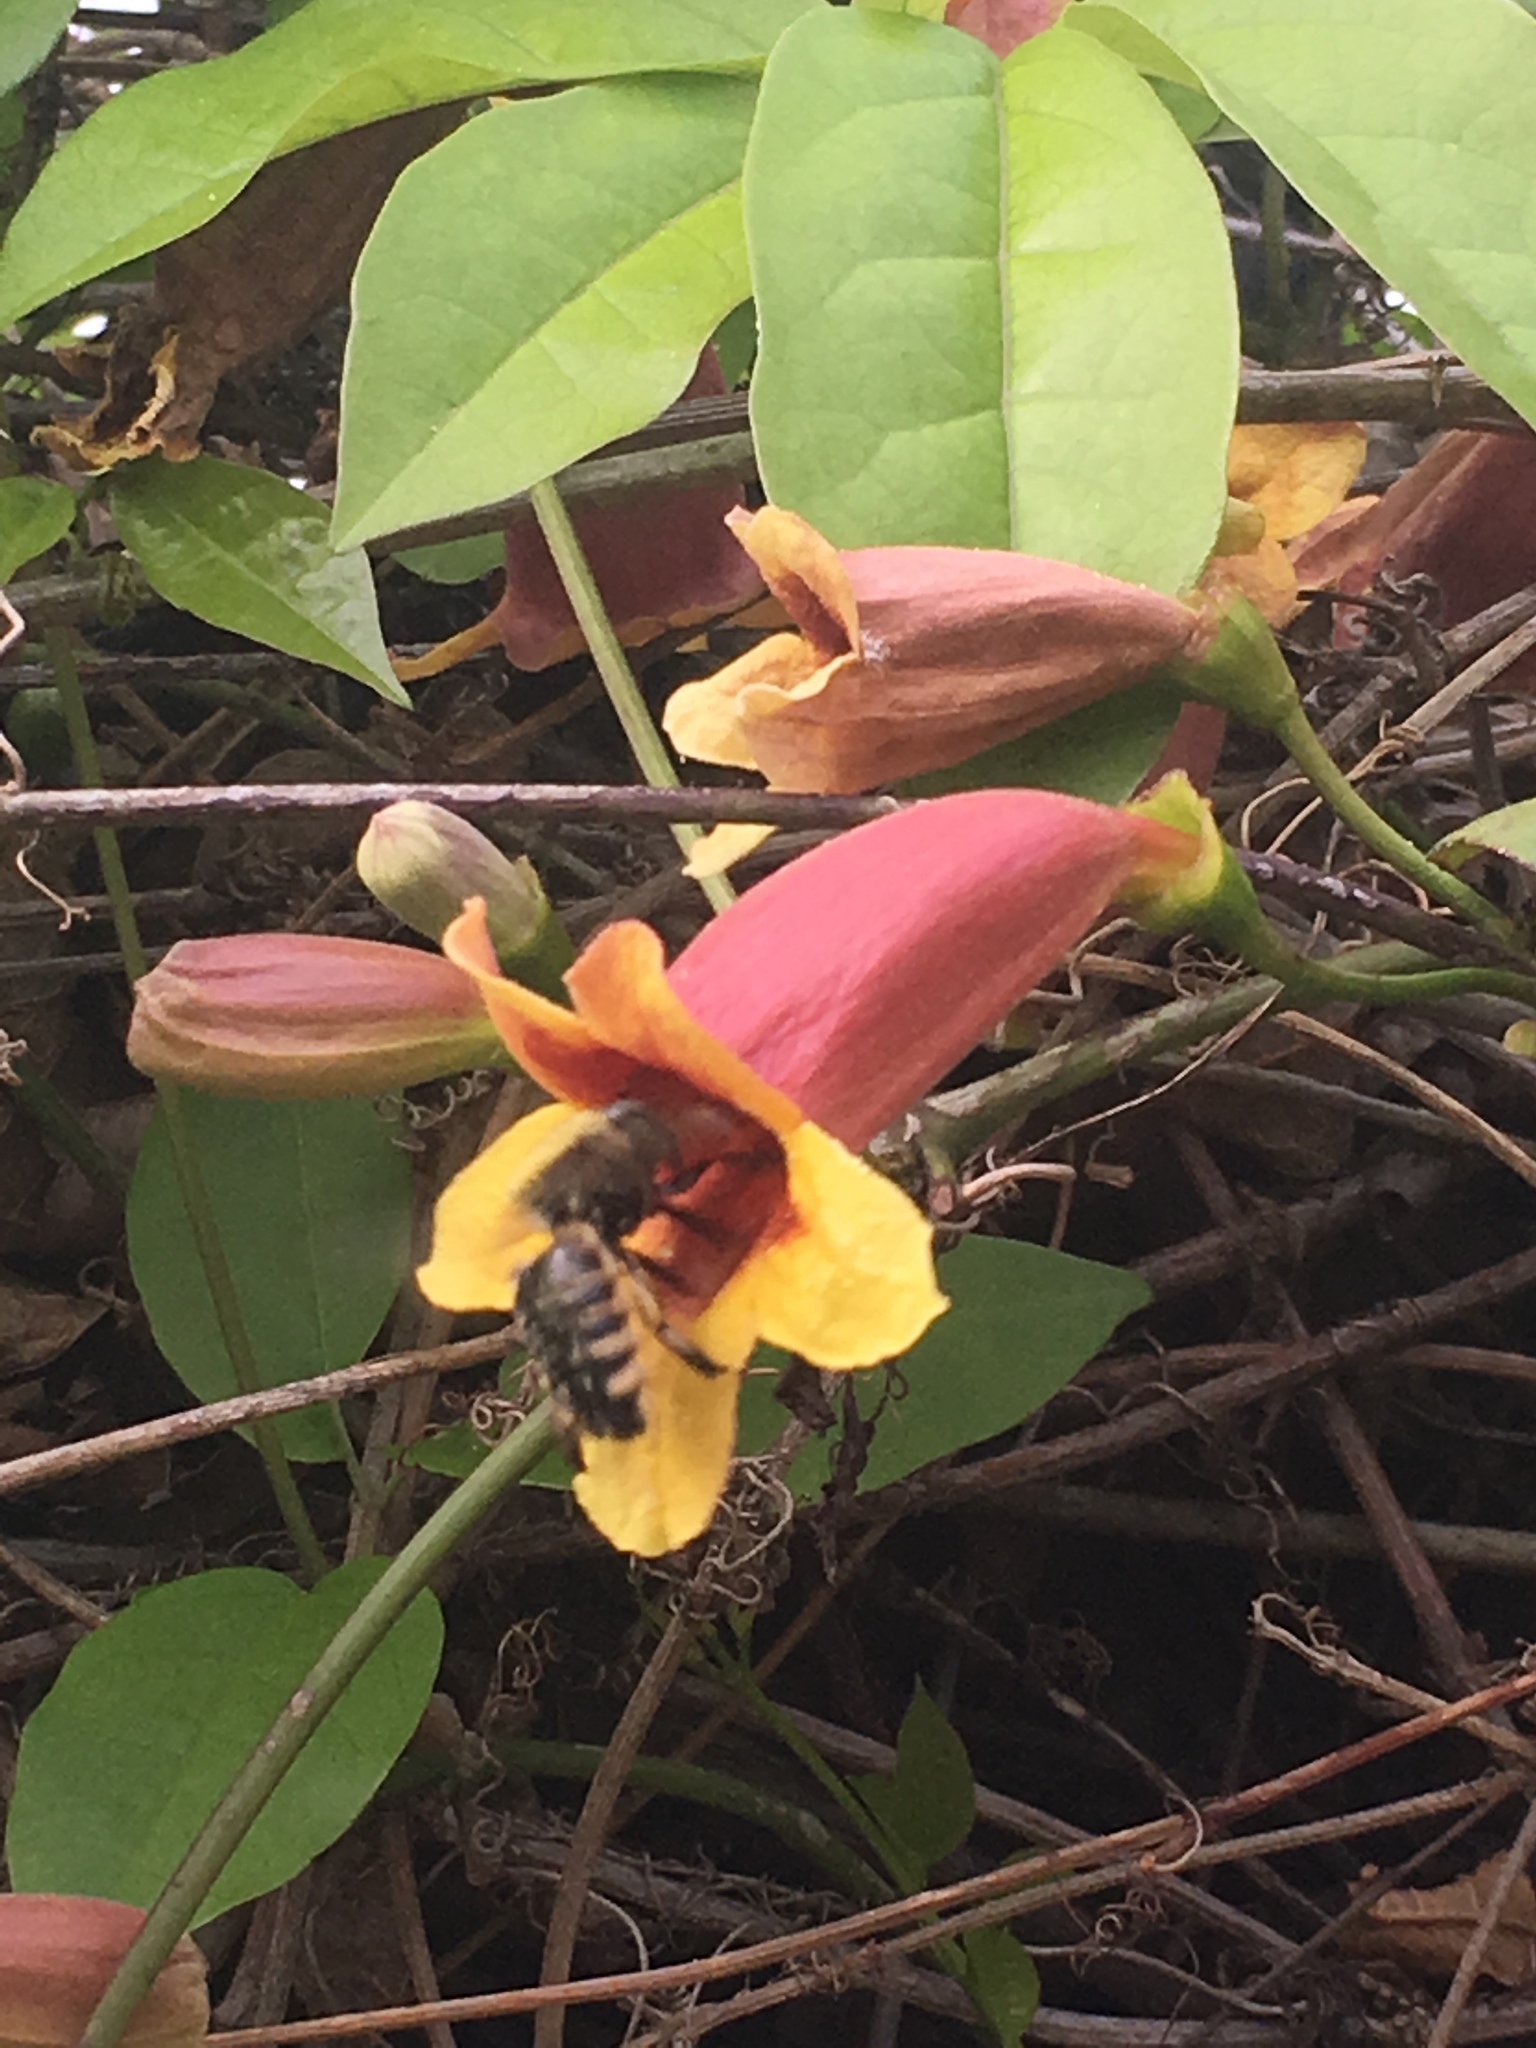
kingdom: Animalia
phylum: Arthropoda
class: Insecta
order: Hymenoptera
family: Apidae
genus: Xylocopa
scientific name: Xylocopa tabaniformis
